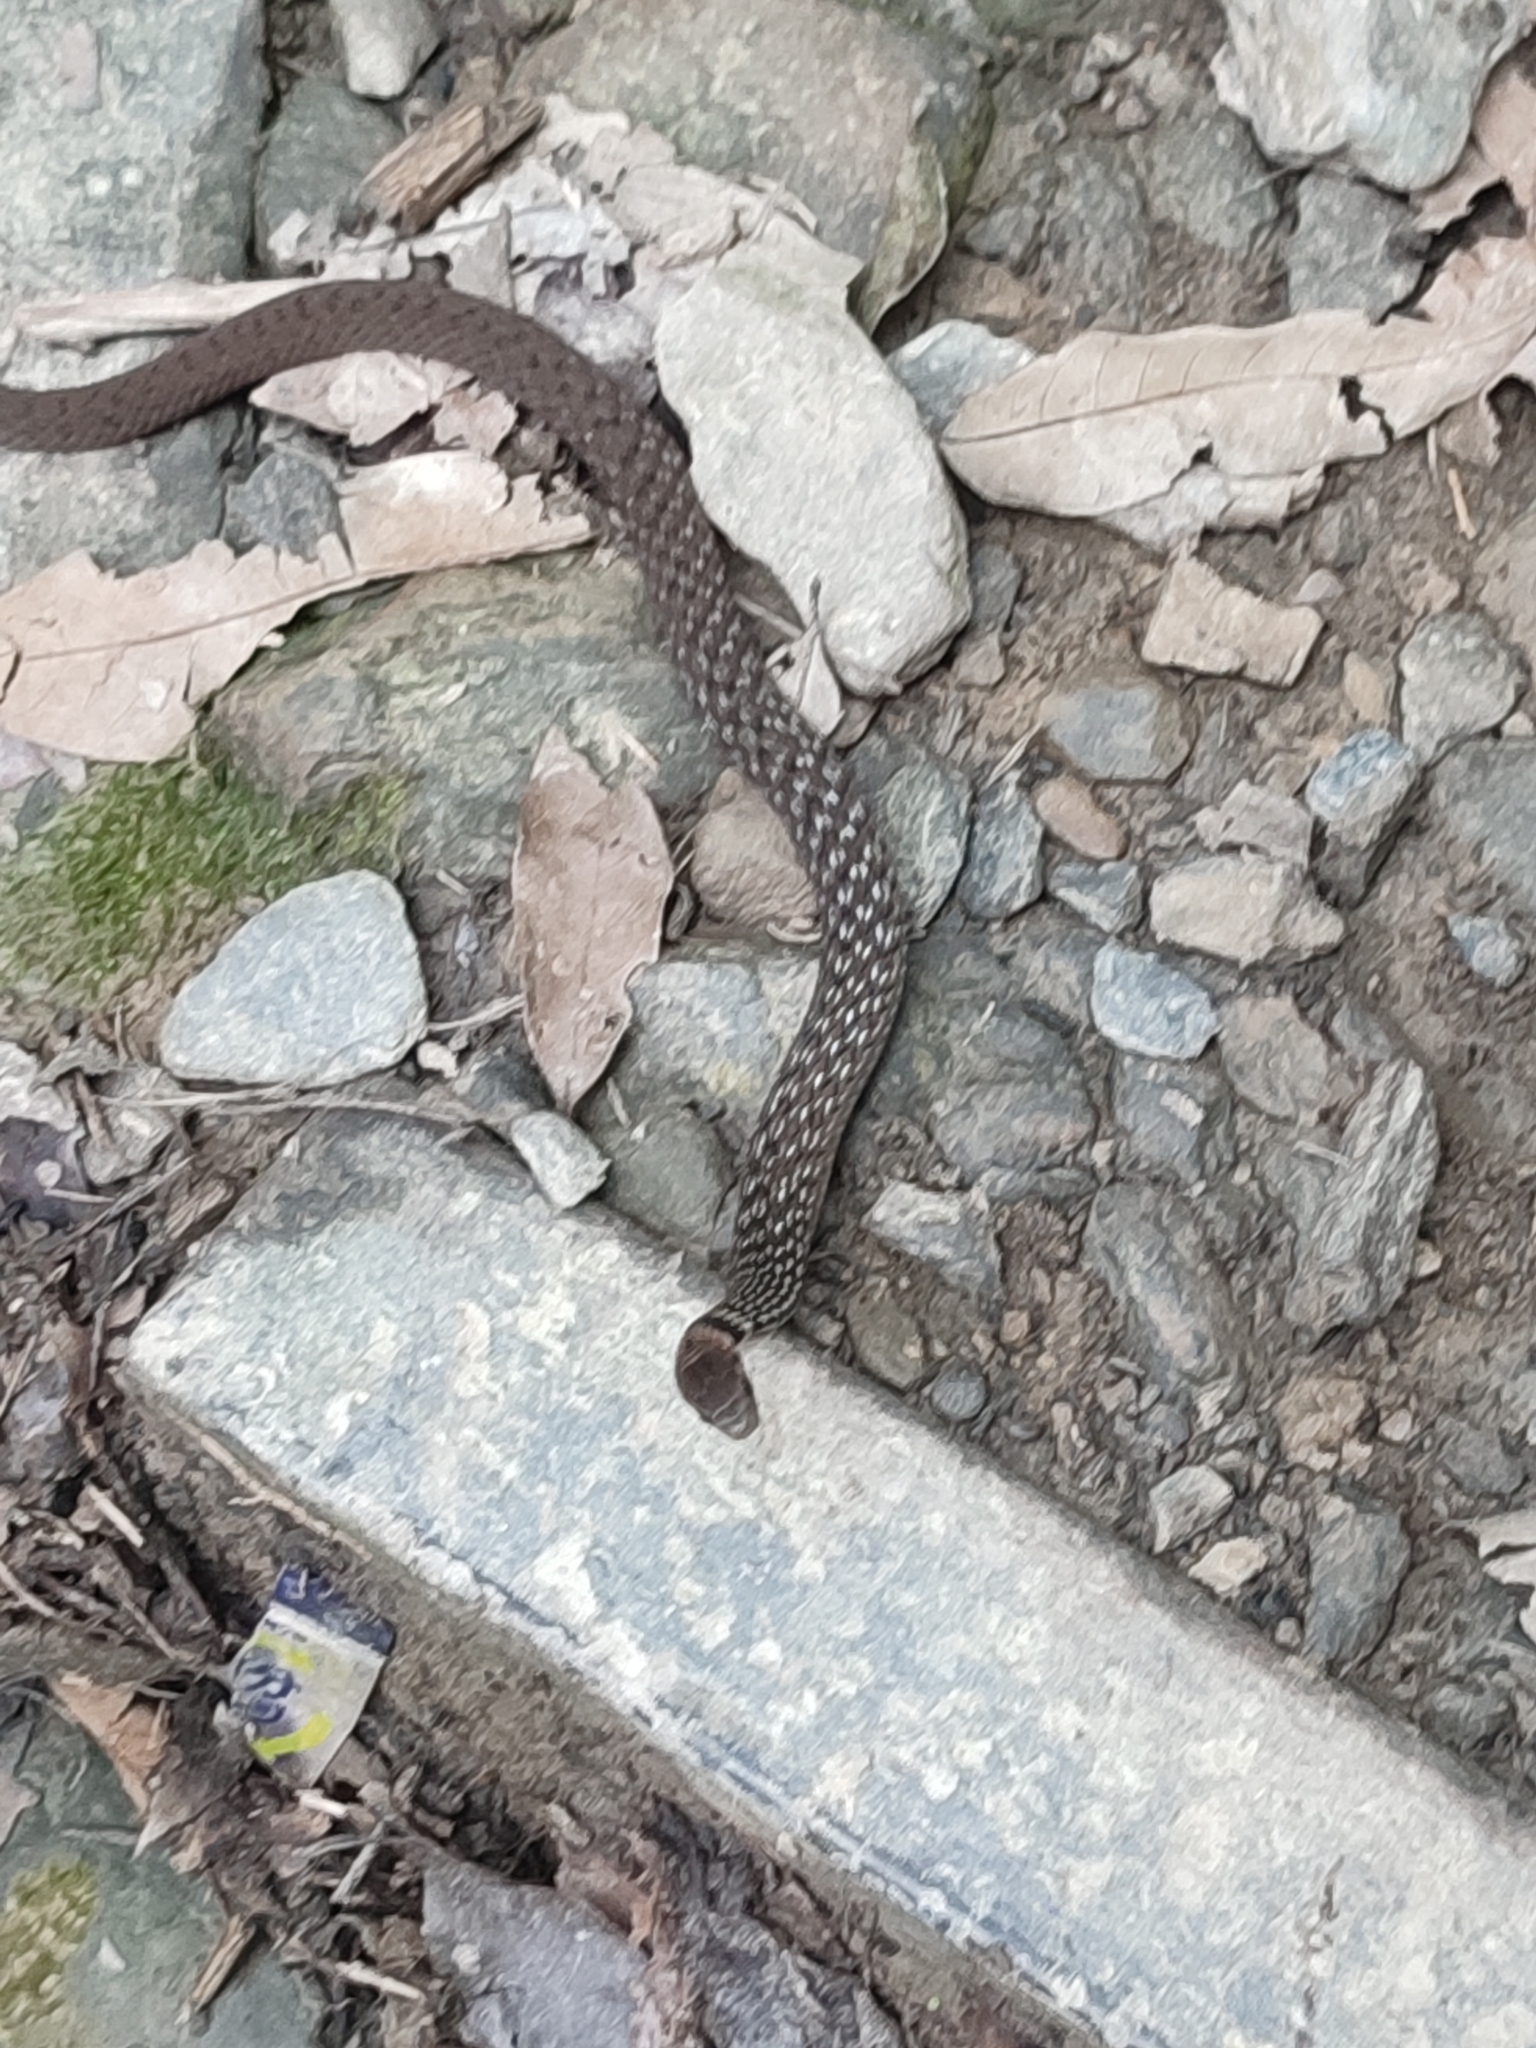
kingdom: Animalia
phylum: Chordata
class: Squamata
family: Colubridae
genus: Rhabdophis
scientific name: Rhabdophis swinhonis
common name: Taiwan keelback
